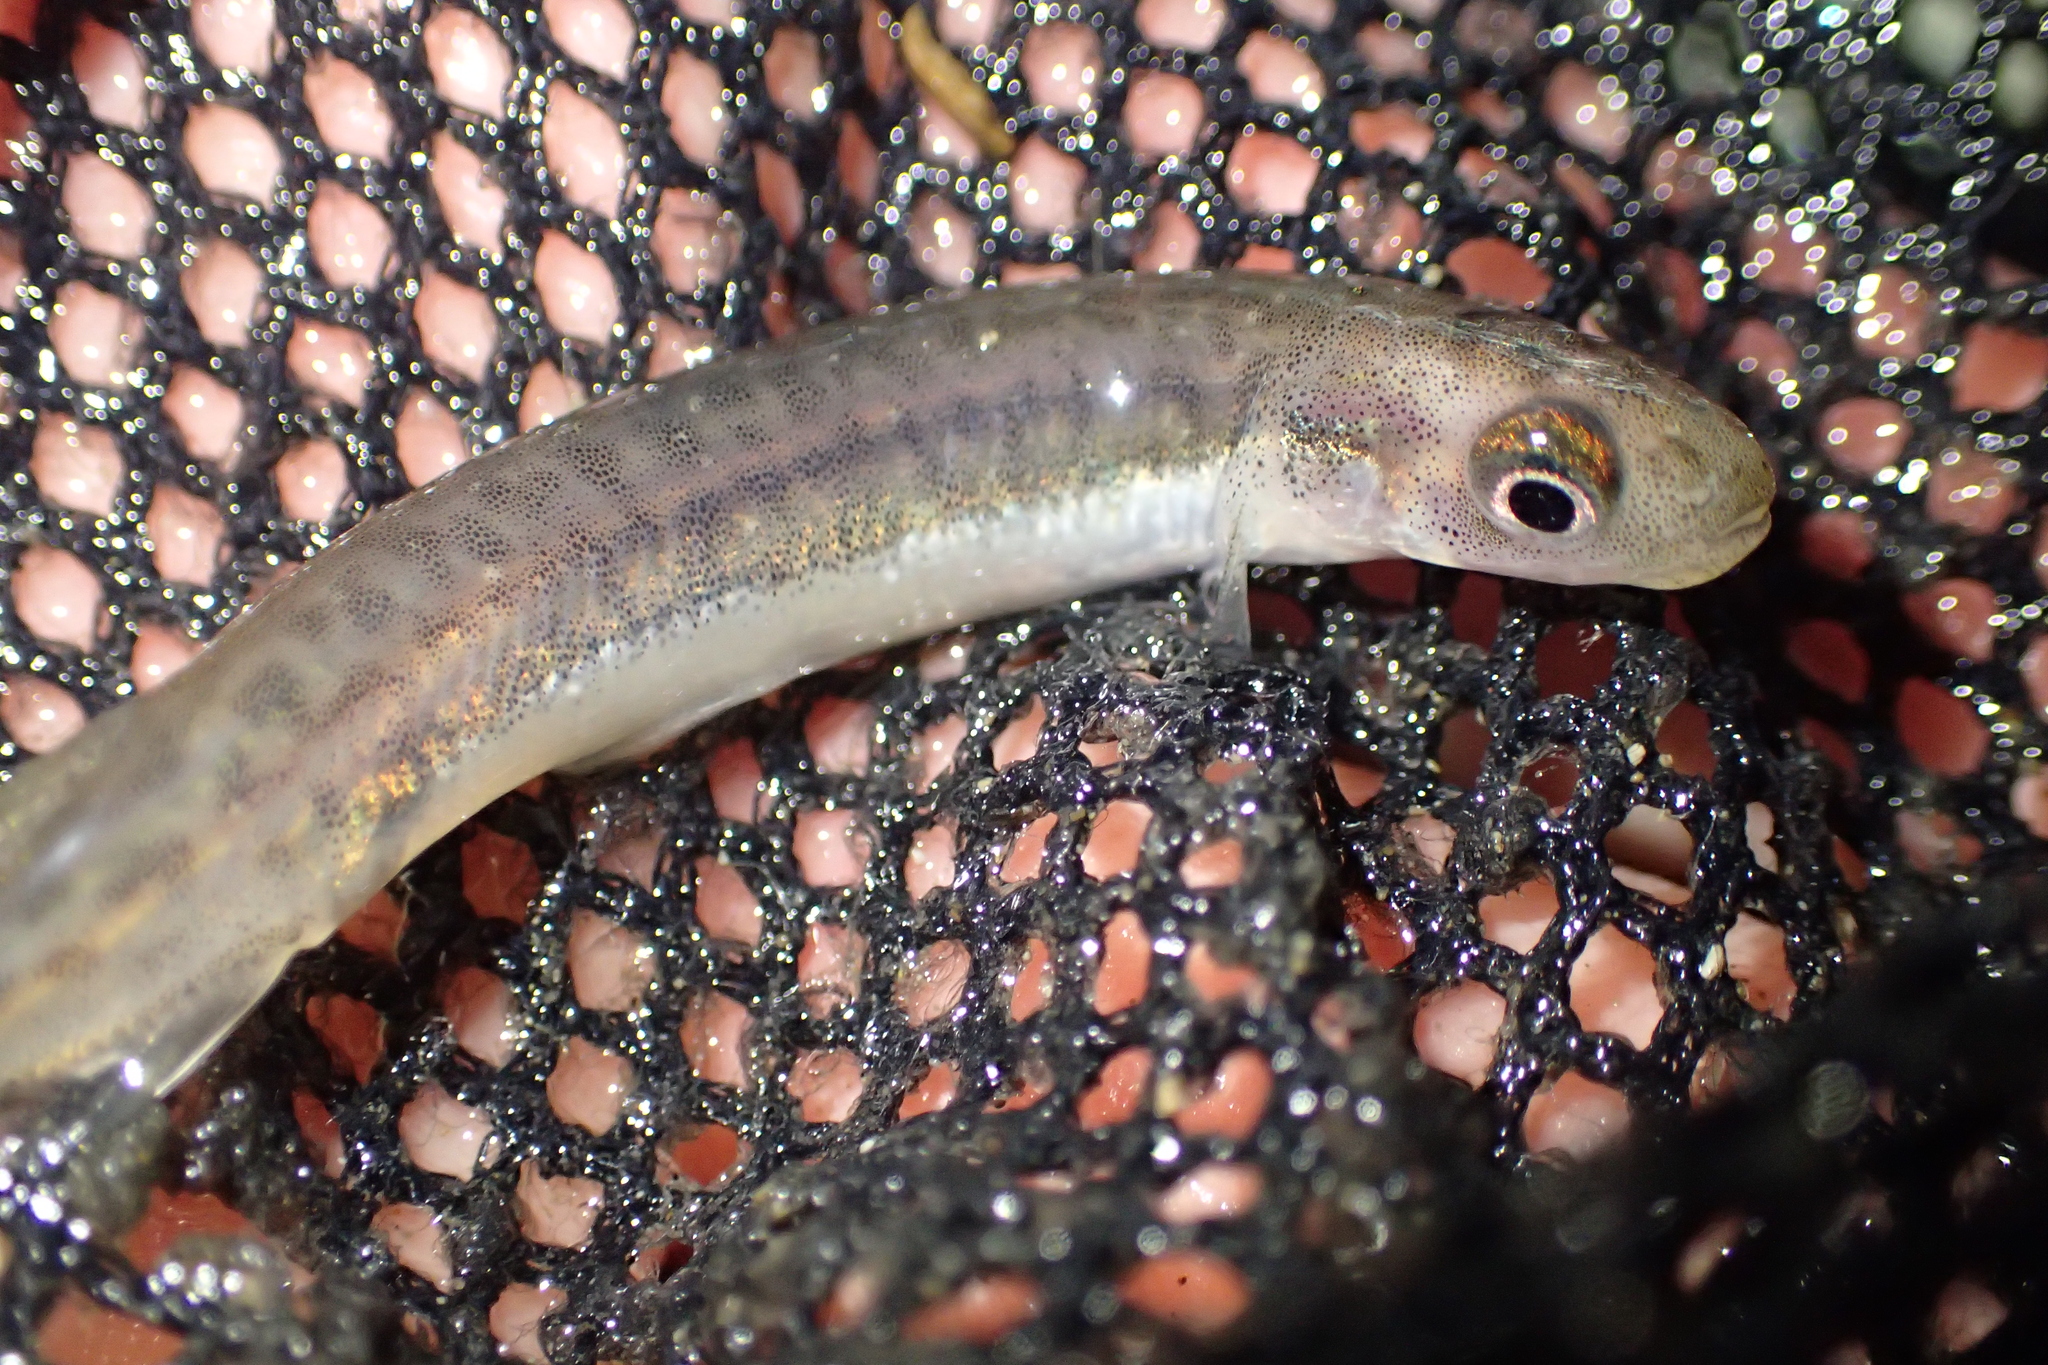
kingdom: Animalia
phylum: Chordata
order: Osmeriformes
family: Galaxiidae
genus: Galaxias
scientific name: Galaxias maculatus
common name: Common galaxias
